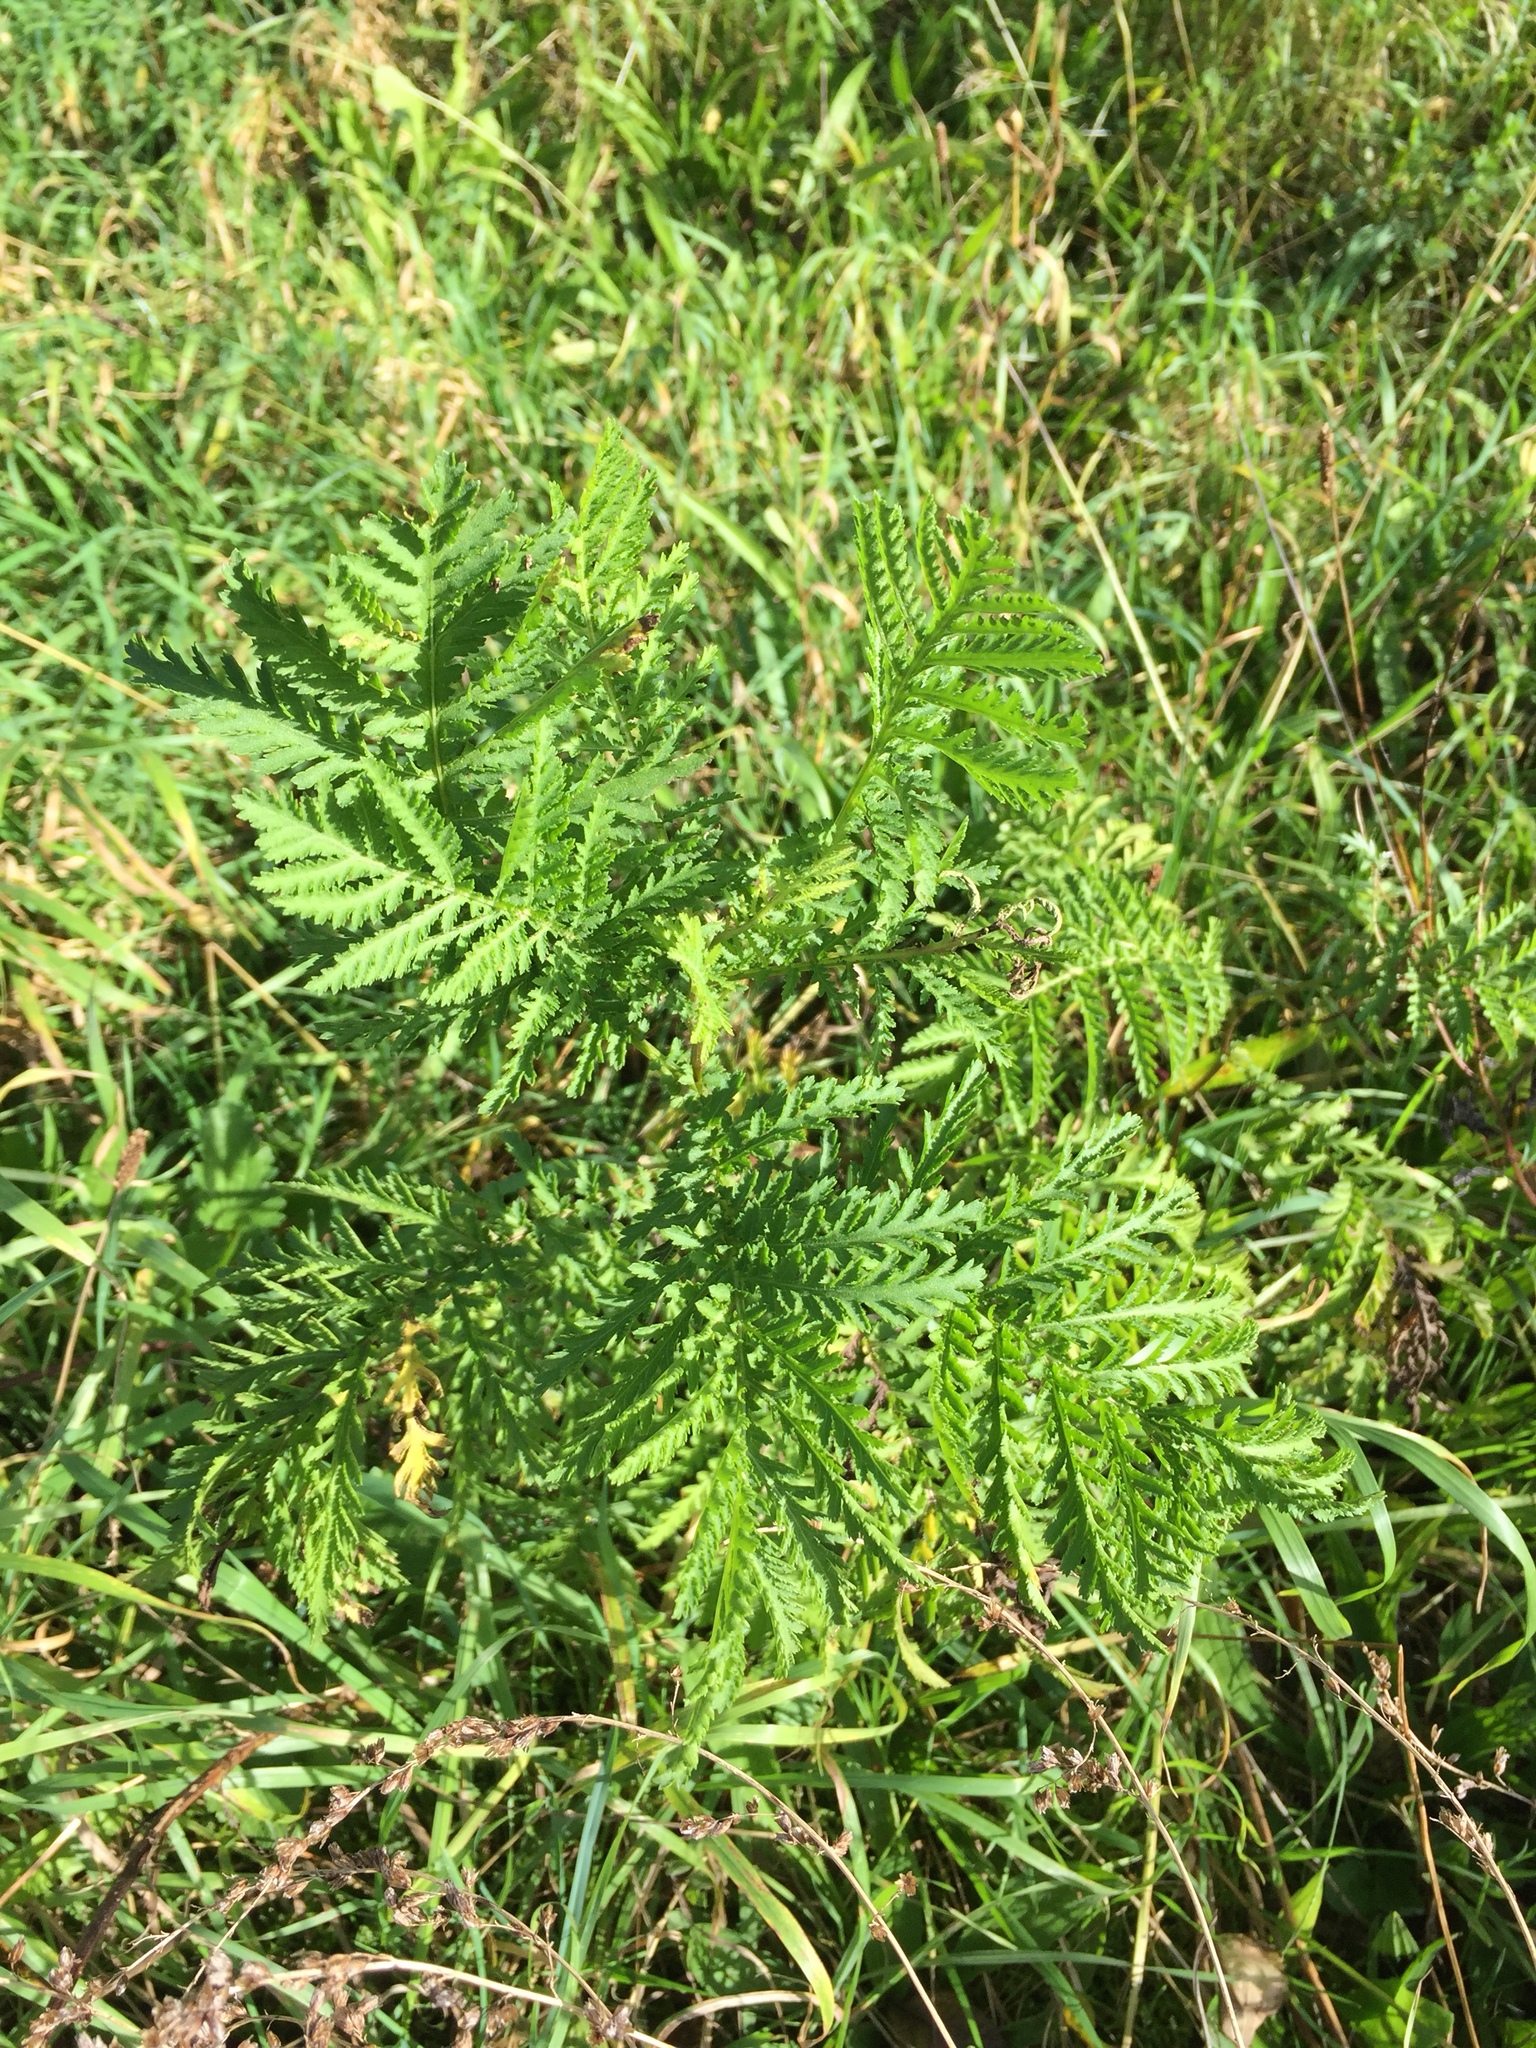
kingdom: Plantae
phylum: Tracheophyta
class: Magnoliopsida
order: Asterales
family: Asteraceae
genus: Tanacetum
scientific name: Tanacetum vulgare
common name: Common tansy
